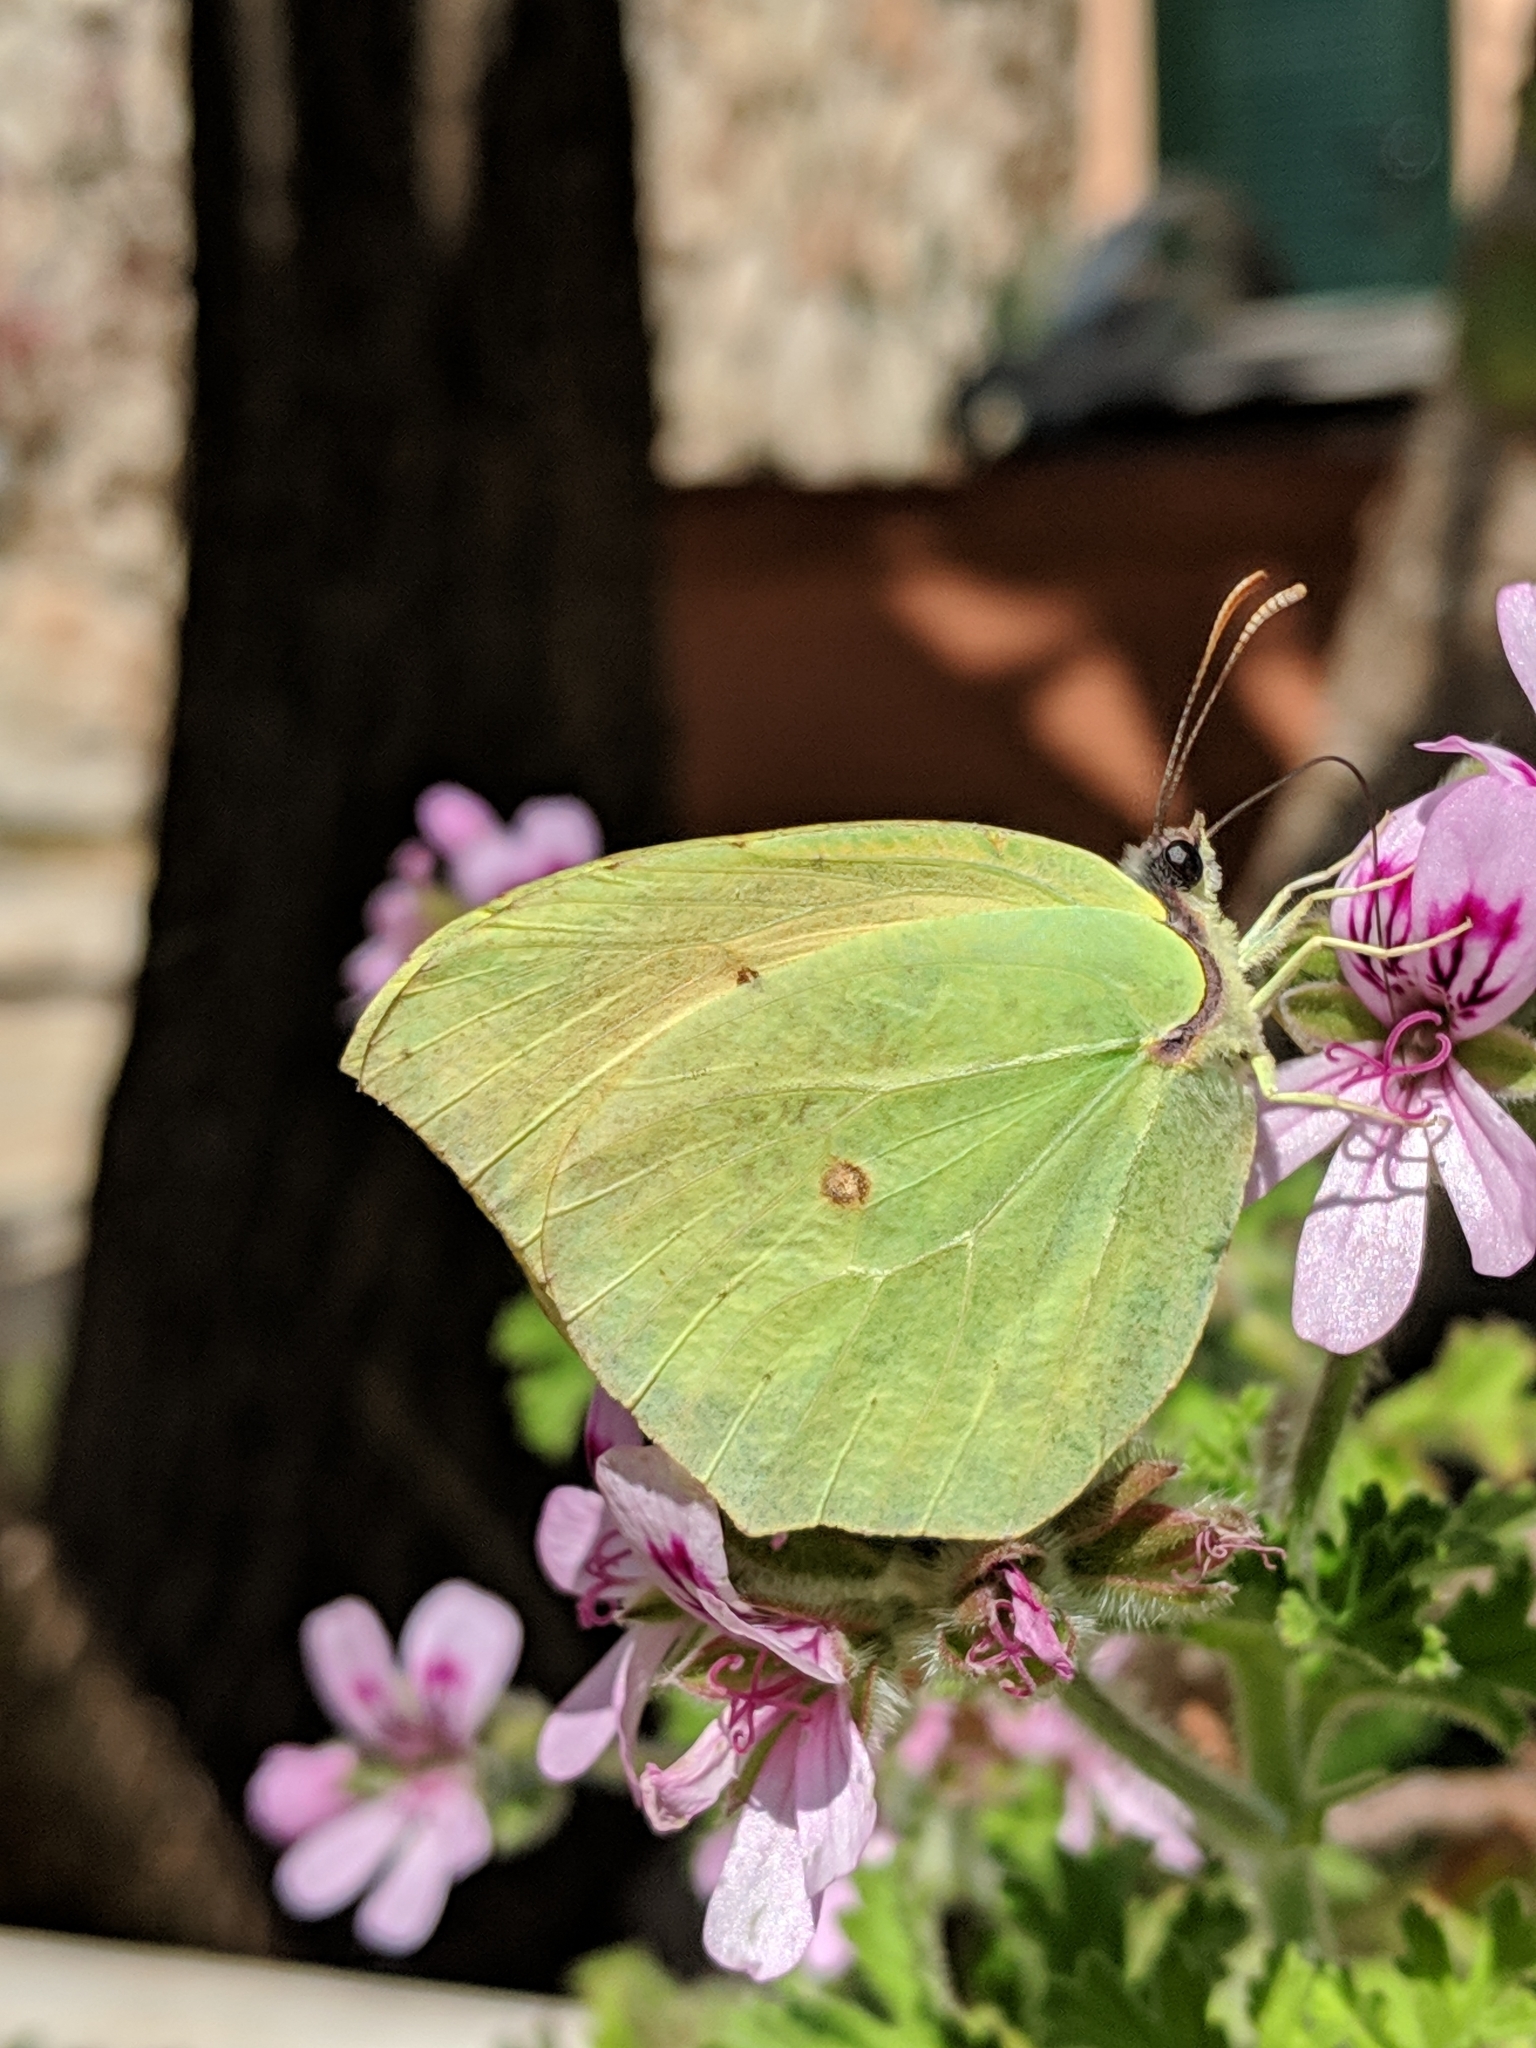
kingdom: Animalia
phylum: Arthropoda
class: Insecta
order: Lepidoptera
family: Pieridae
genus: Gonepteryx
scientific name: Gonepteryx cleopatra
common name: Cleopatra
